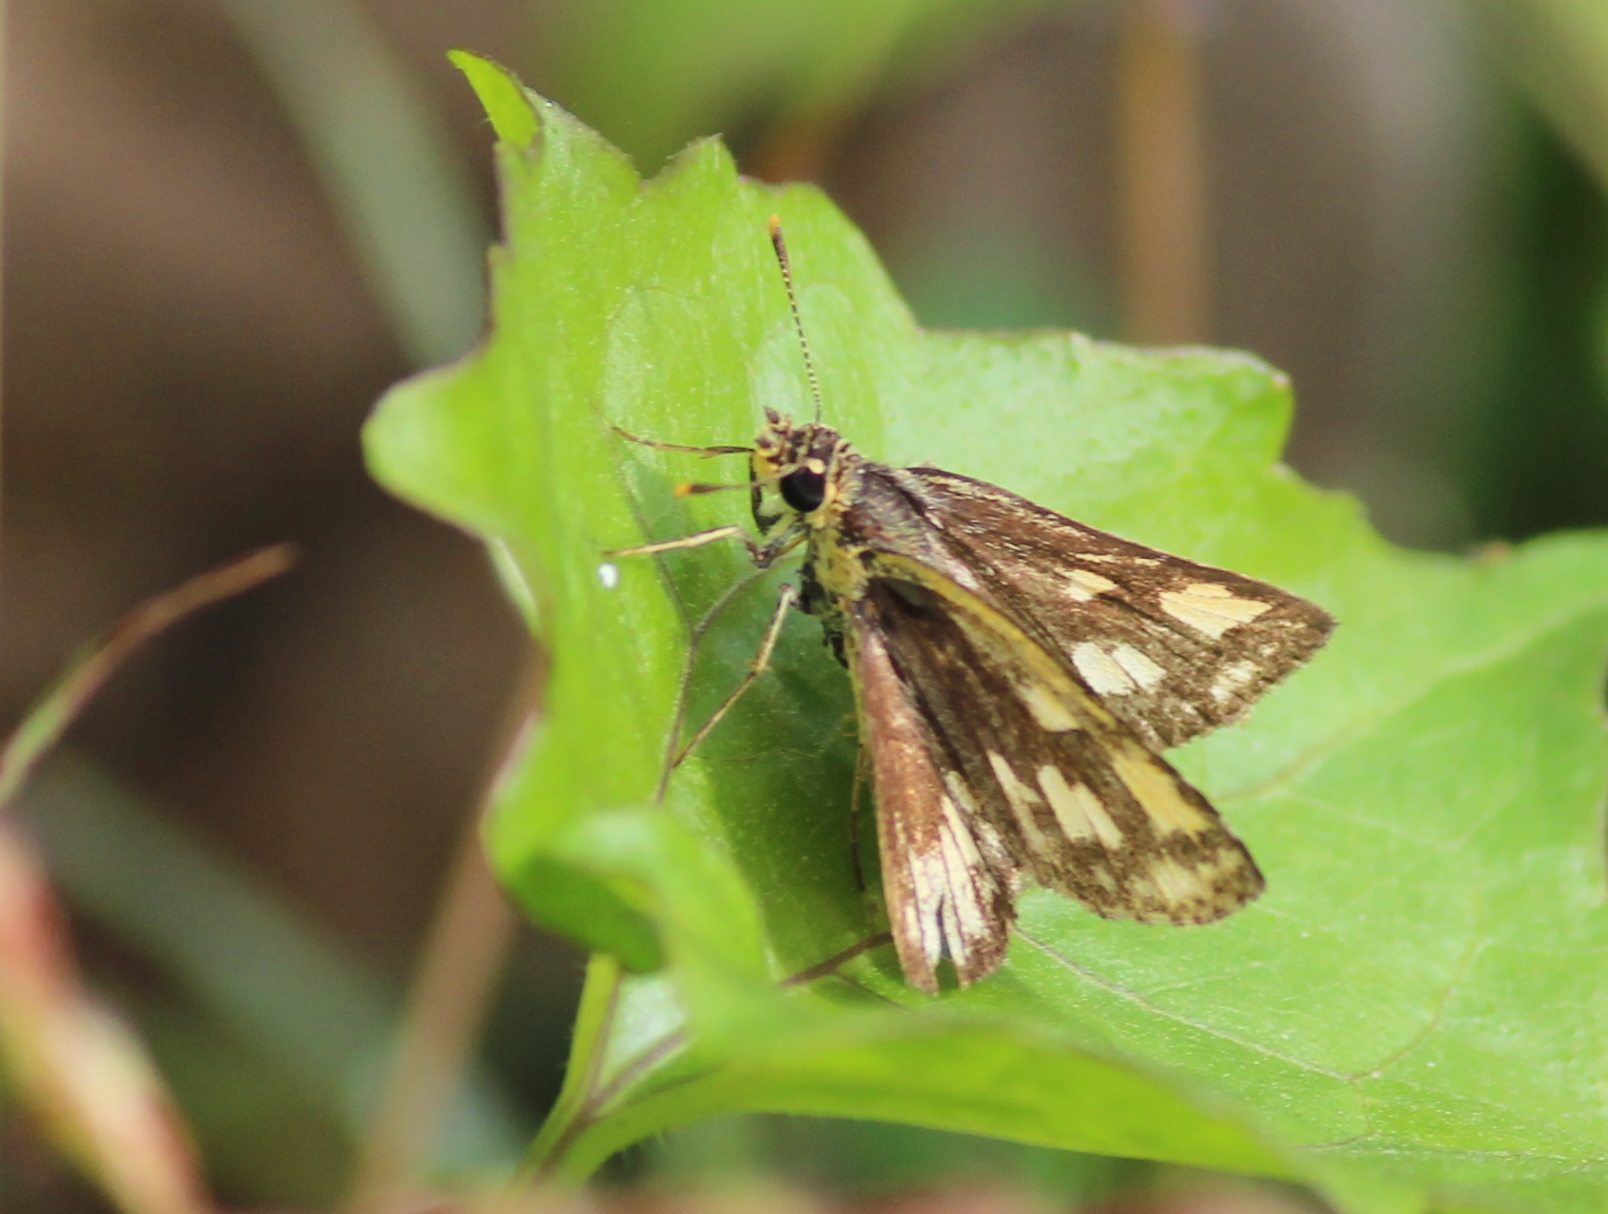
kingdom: Animalia
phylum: Arthropoda
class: Insecta
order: Lepidoptera
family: Hesperiidae
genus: Ampittia
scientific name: Ampittia dioscorides
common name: Common bush hopper
